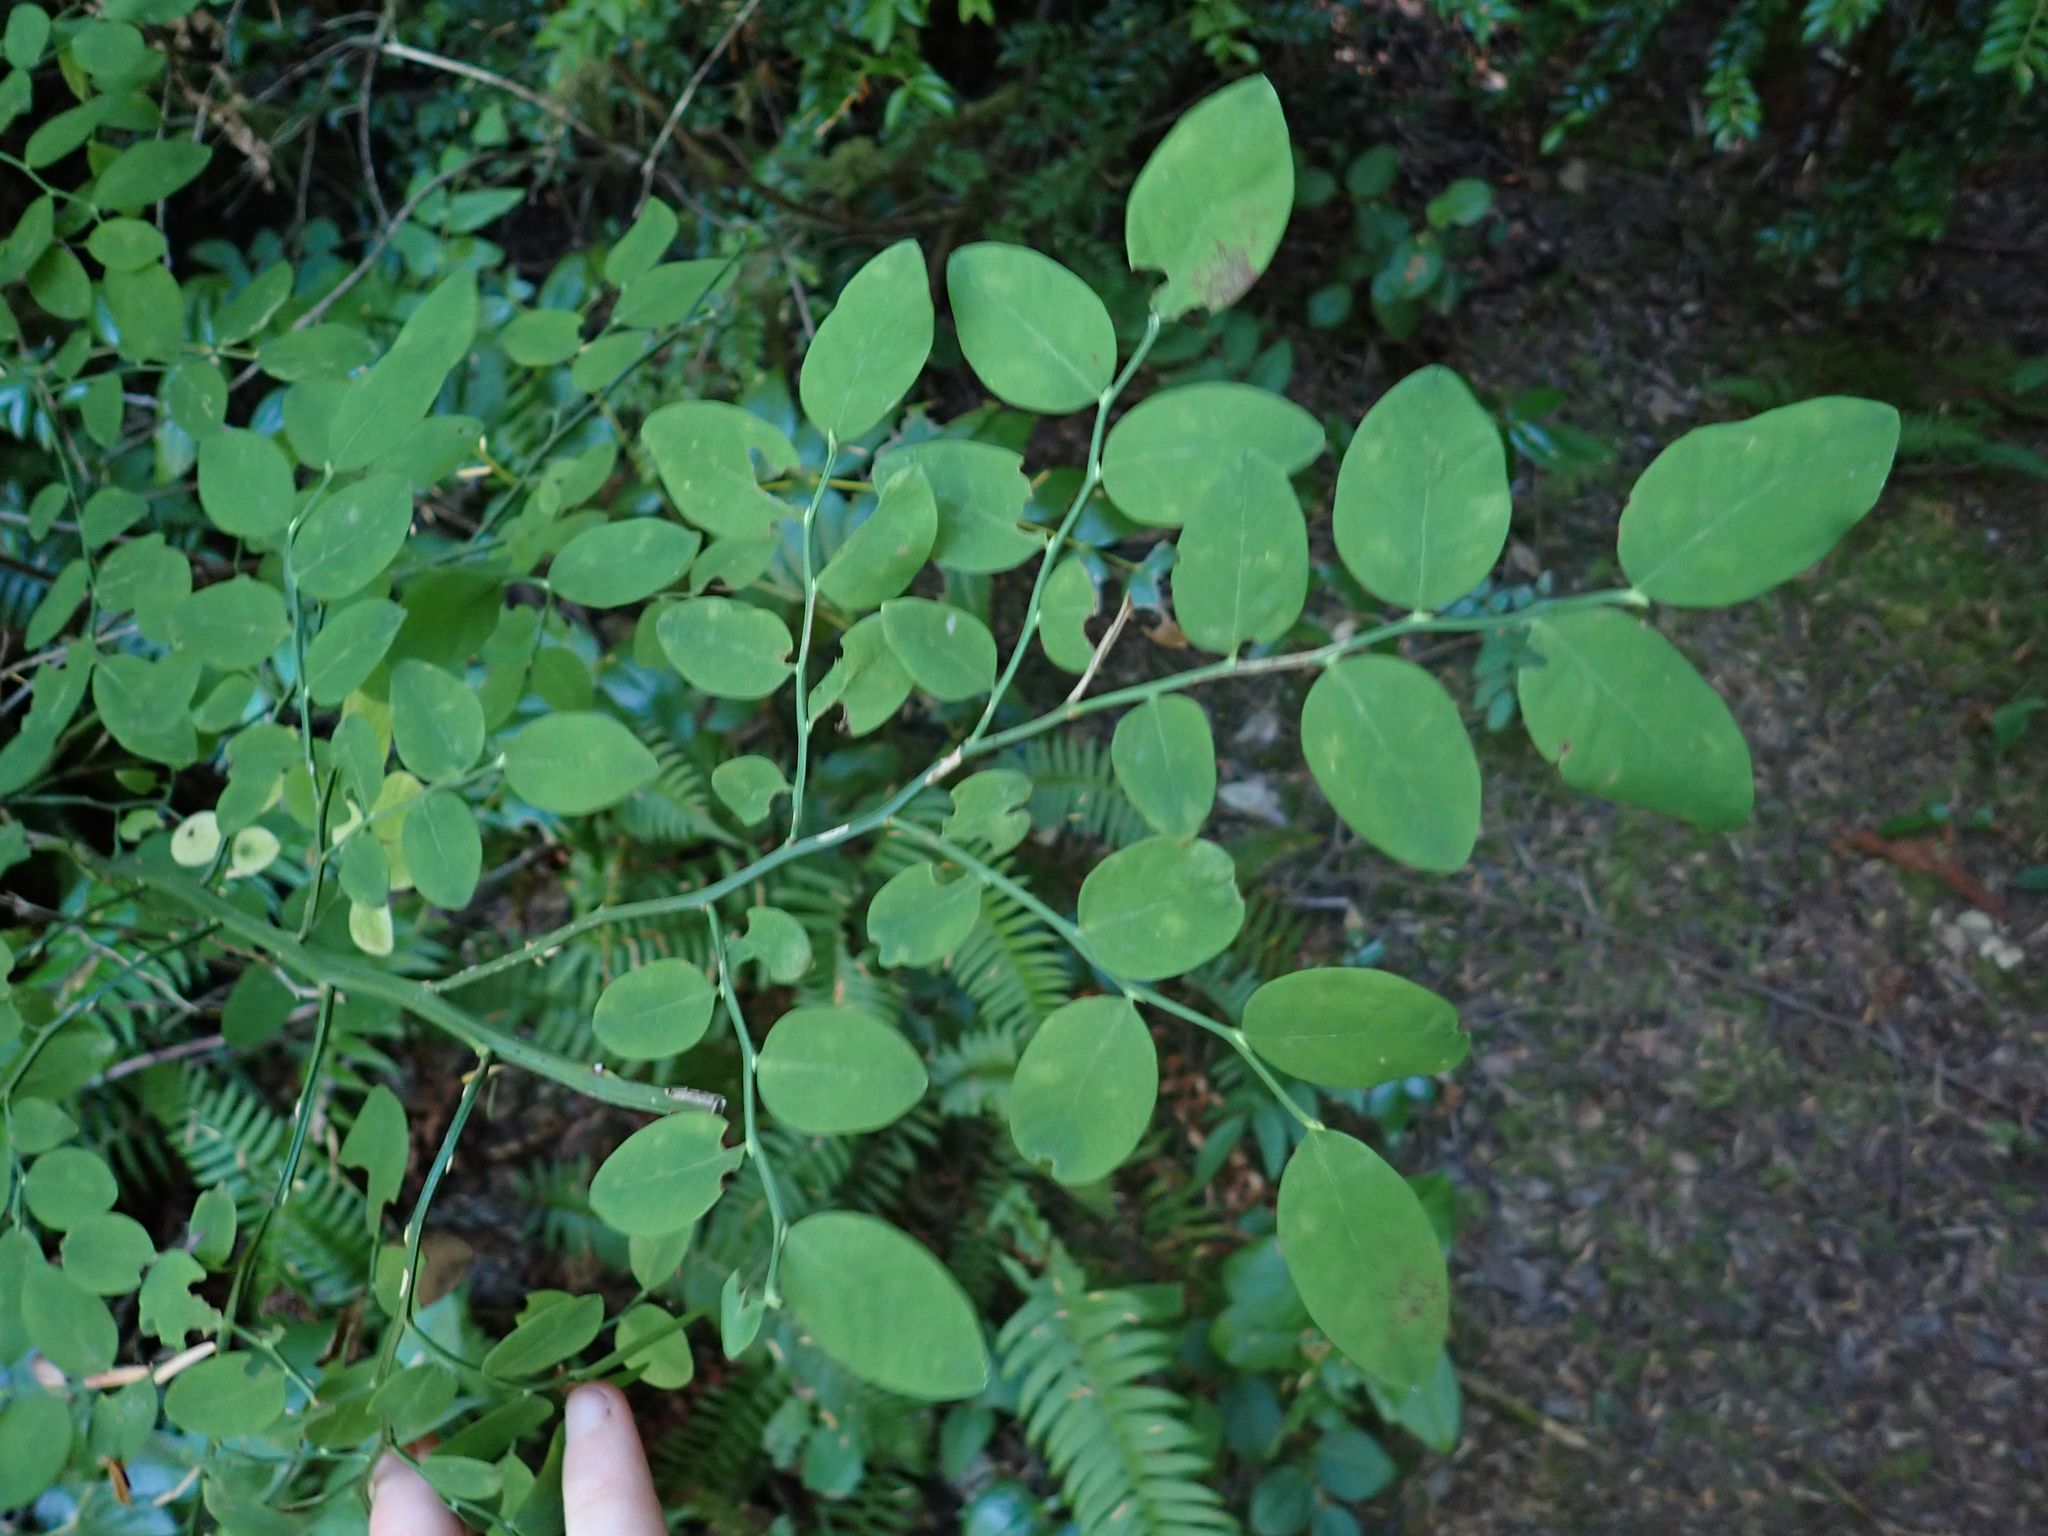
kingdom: Plantae
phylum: Tracheophyta
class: Magnoliopsida
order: Ericales
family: Ericaceae
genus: Vaccinium
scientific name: Vaccinium parvifolium
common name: Red-huckleberry
